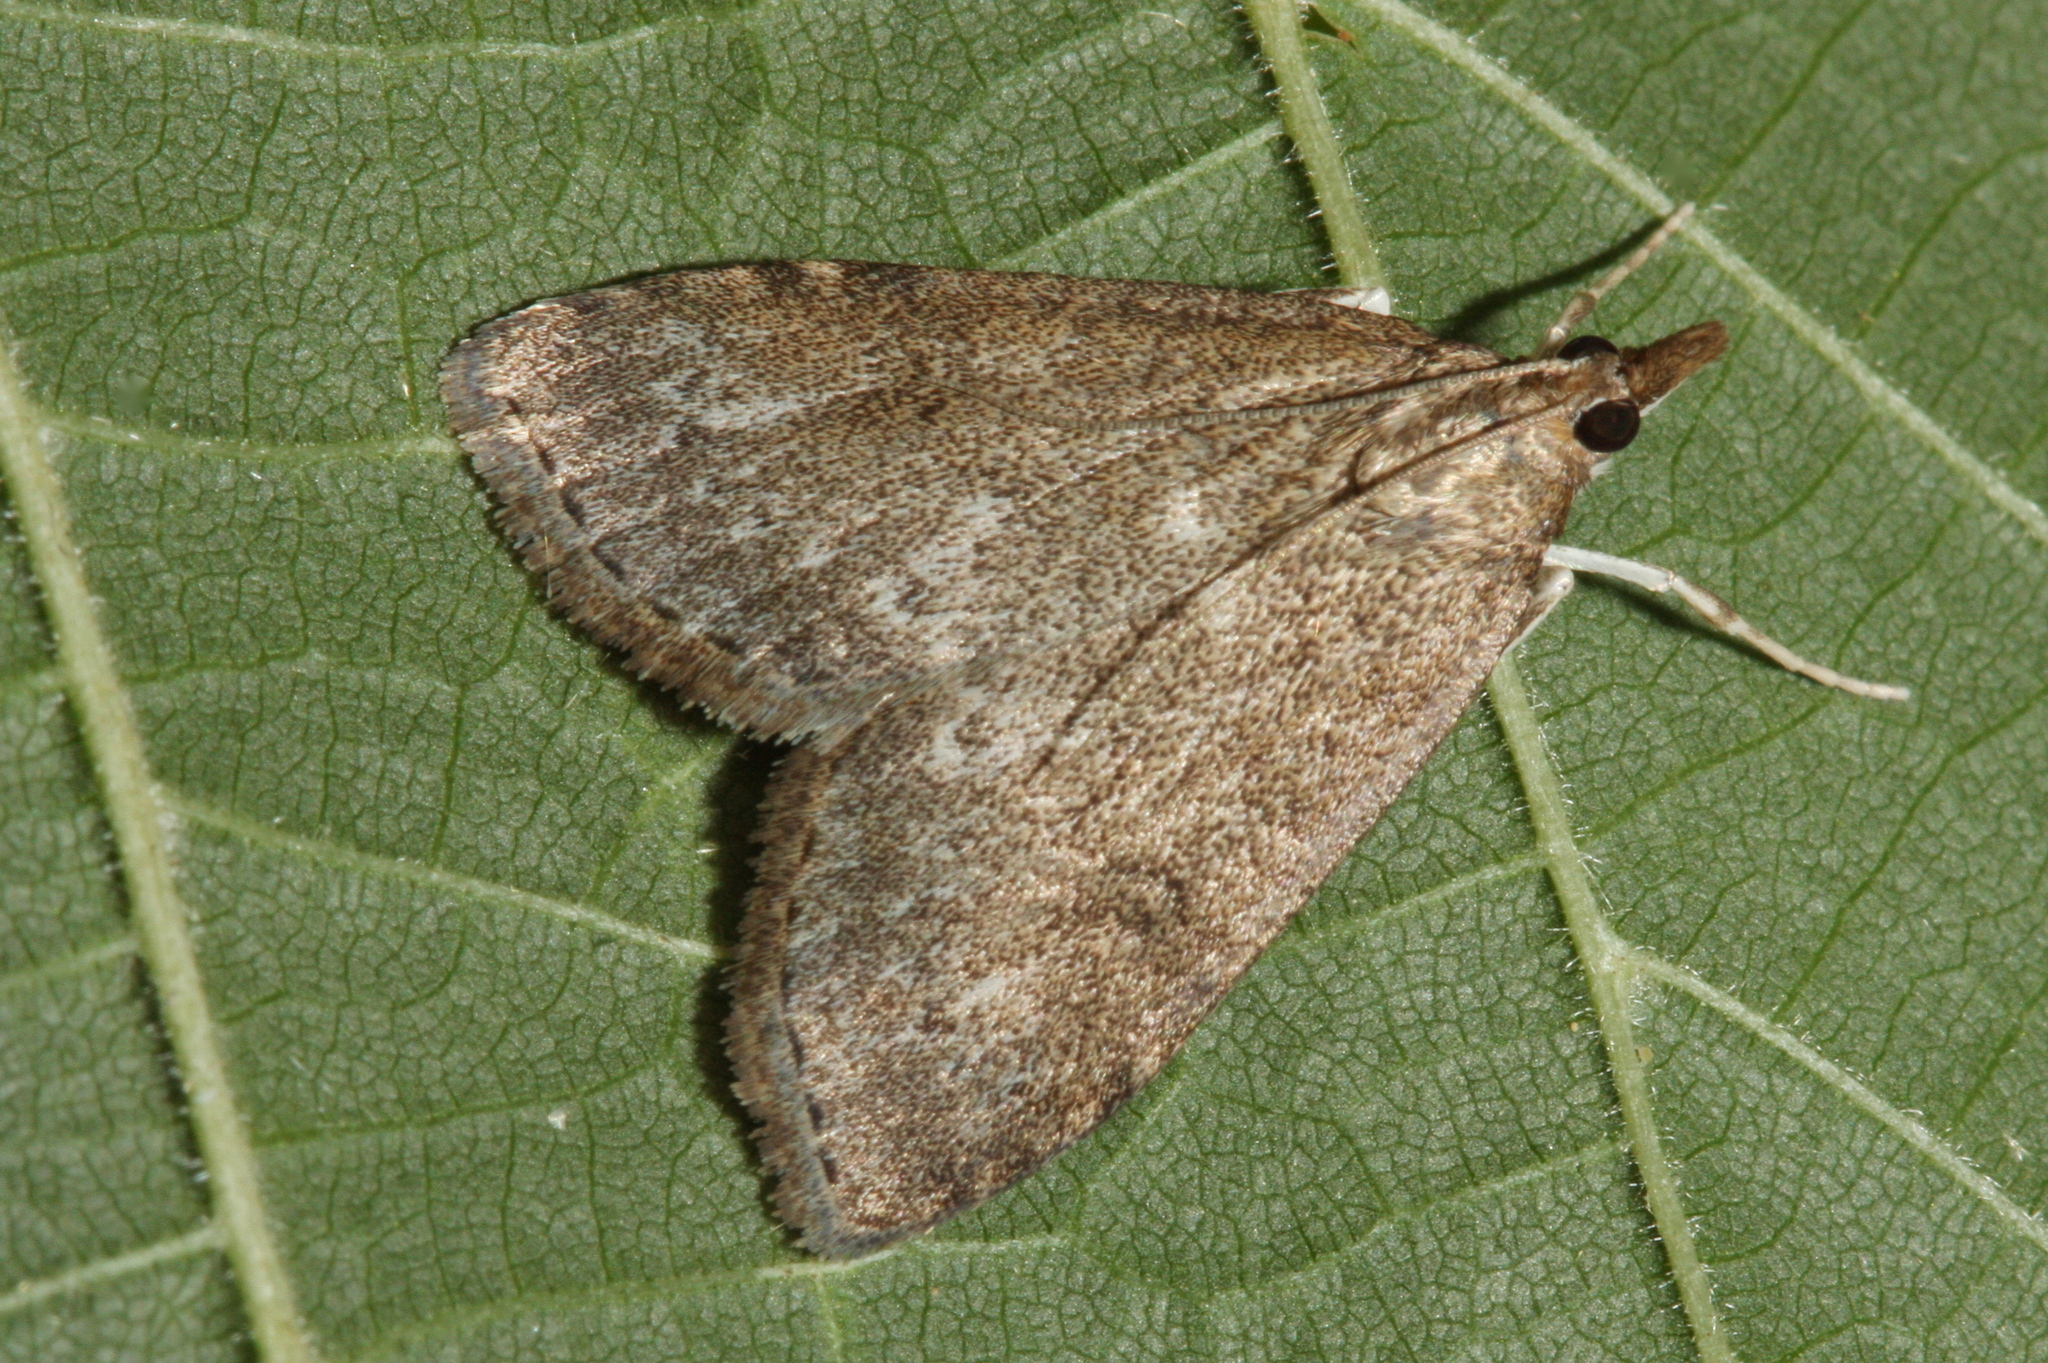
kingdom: Animalia
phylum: Arthropoda
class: Insecta
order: Lepidoptera
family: Crambidae
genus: Udea
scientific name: Udea prunalis
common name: Dusky pearl
